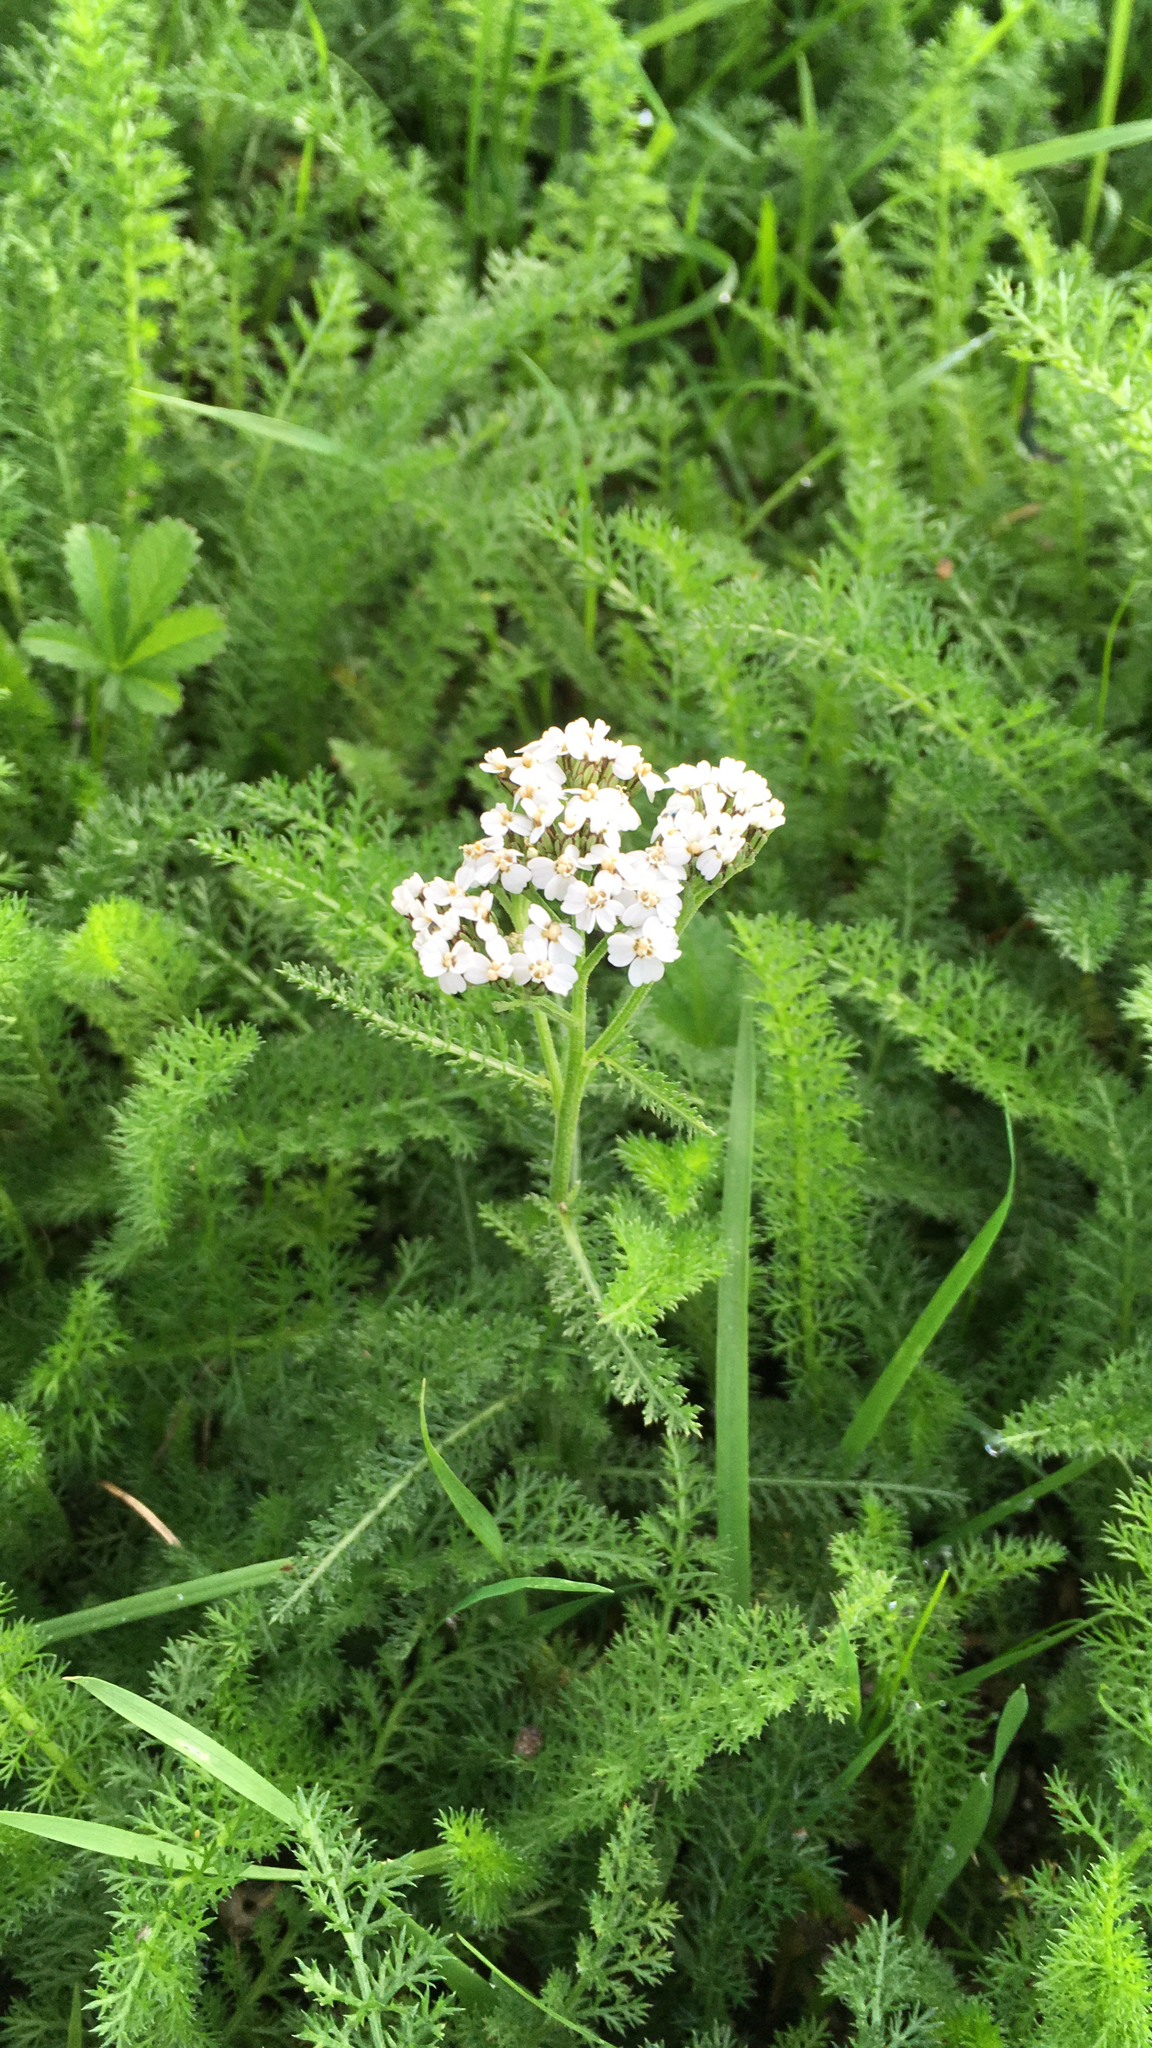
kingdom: Plantae
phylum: Tracheophyta
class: Magnoliopsida
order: Asterales
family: Asteraceae
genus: Achillea
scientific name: Achillea millefolium
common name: Yarrow
